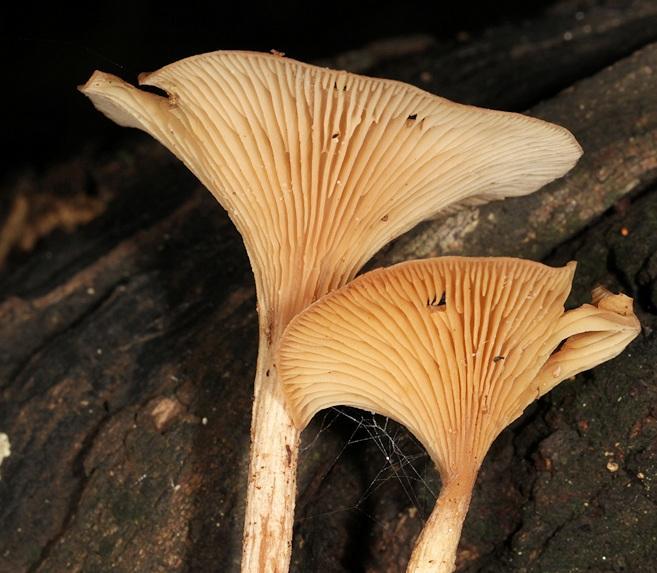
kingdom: Fungi
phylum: Basidiomycota
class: Agaricomycetes
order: Agaricales
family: Tricholomataceae
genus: Paralepista
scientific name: Paralepista flaccida
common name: Tawny funnel cap
